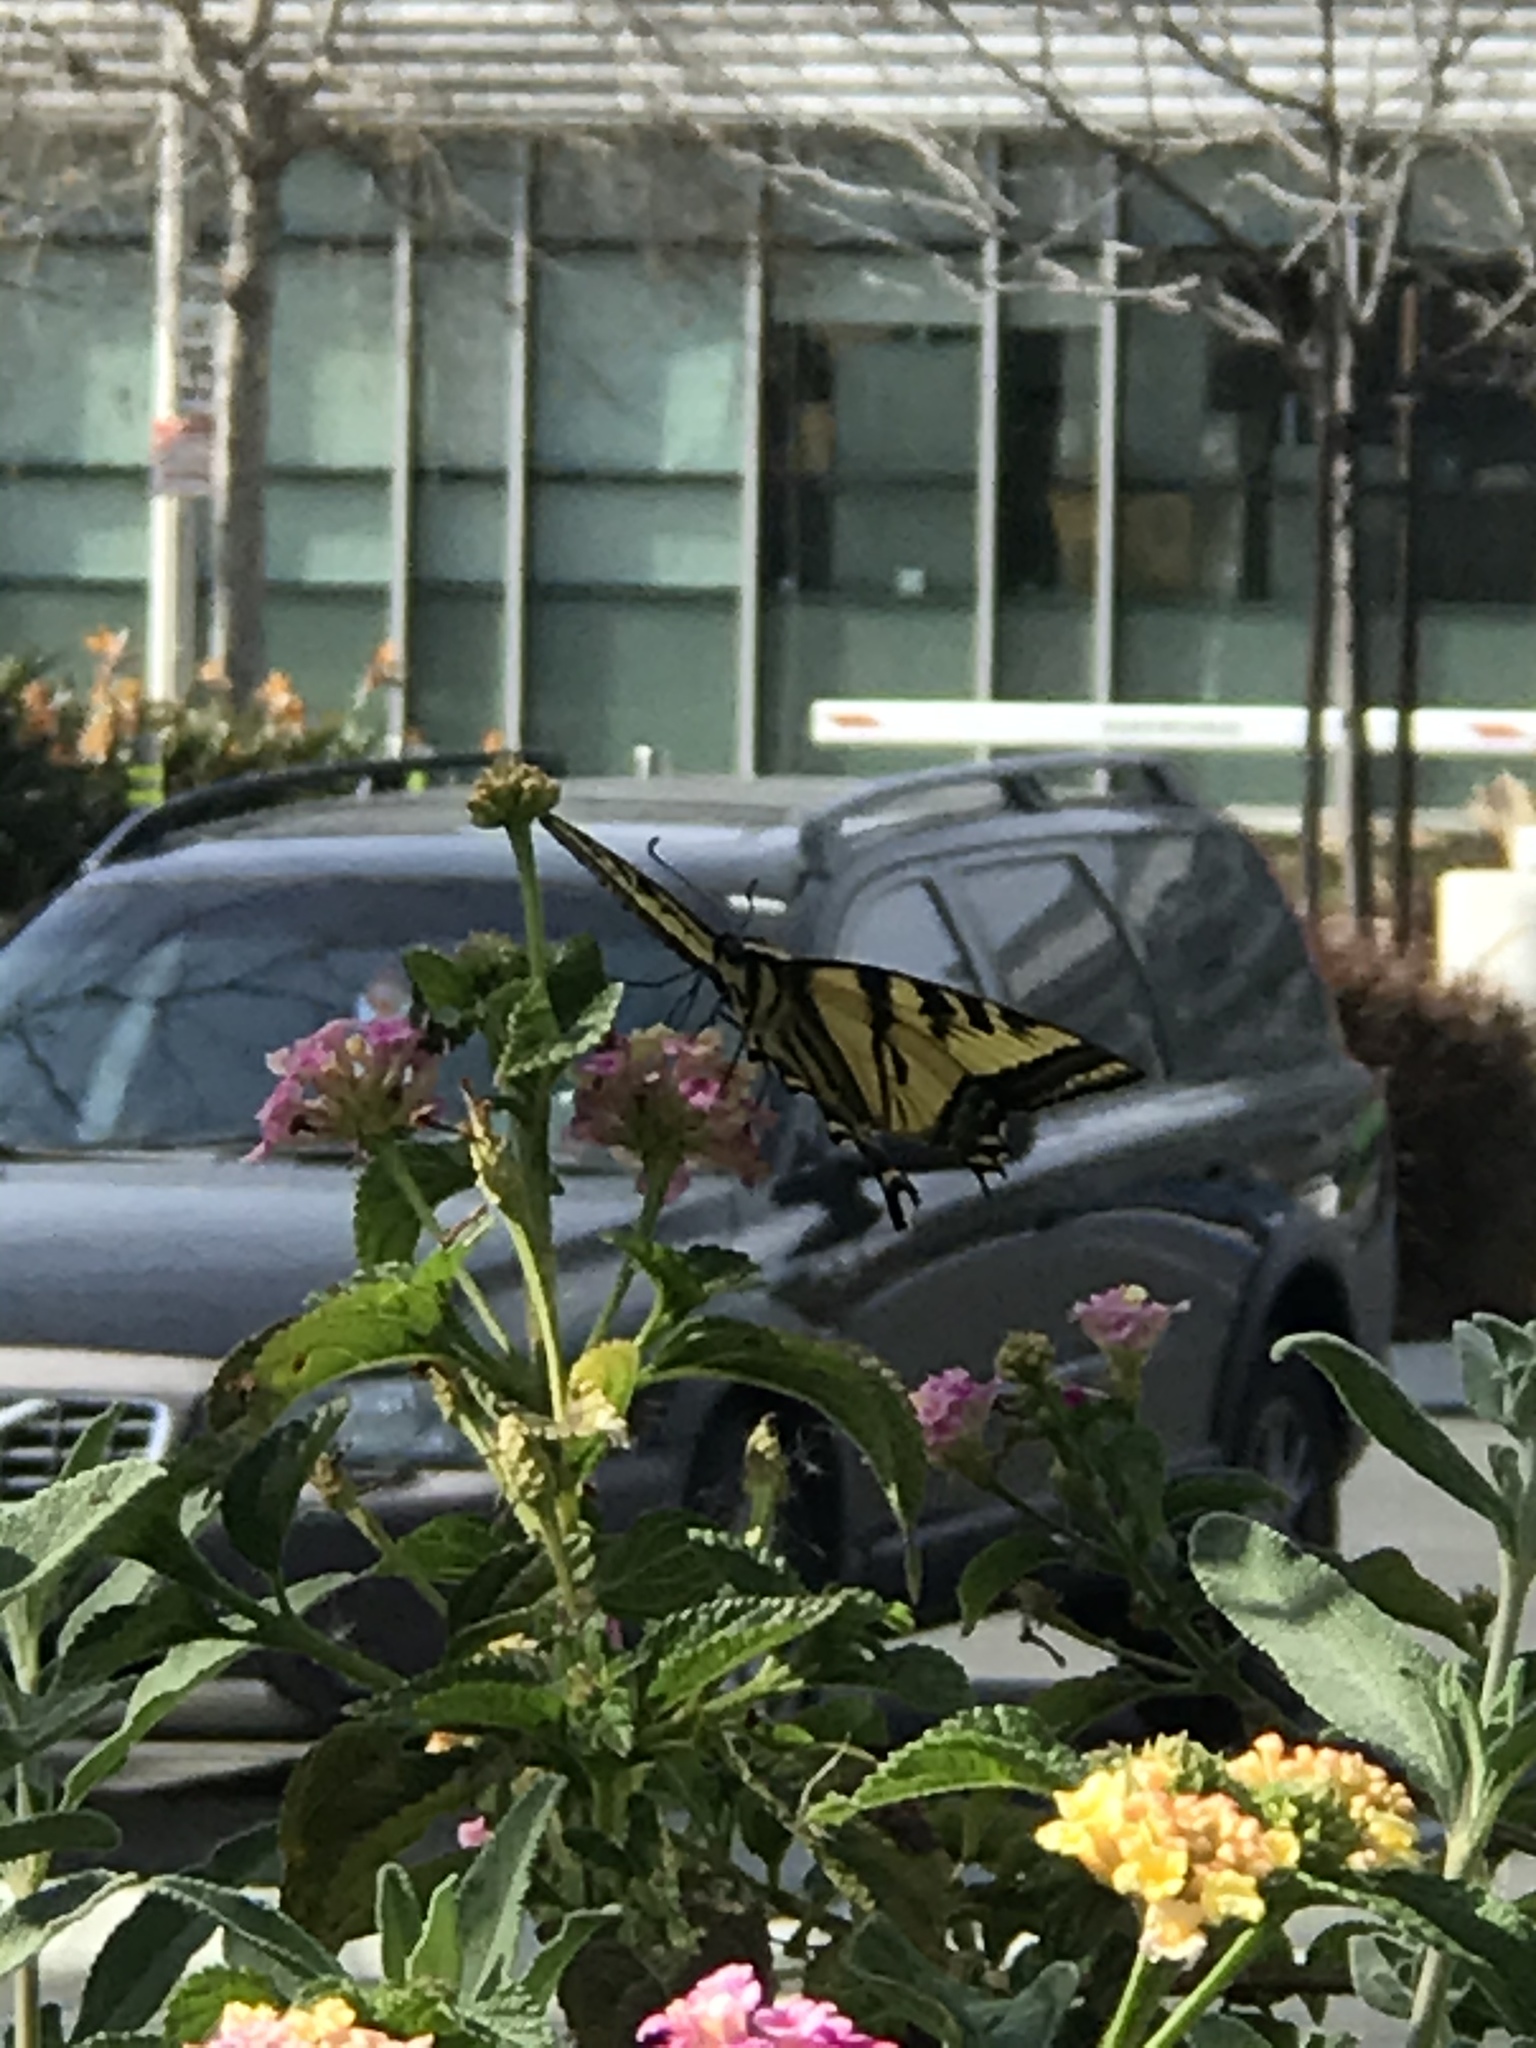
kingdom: Animalia
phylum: Arthropoda
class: Insecta
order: Lepidoptera
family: Papilionidae
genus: Papilio
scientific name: Papilio rutulus
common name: Western tiger swallowtail
